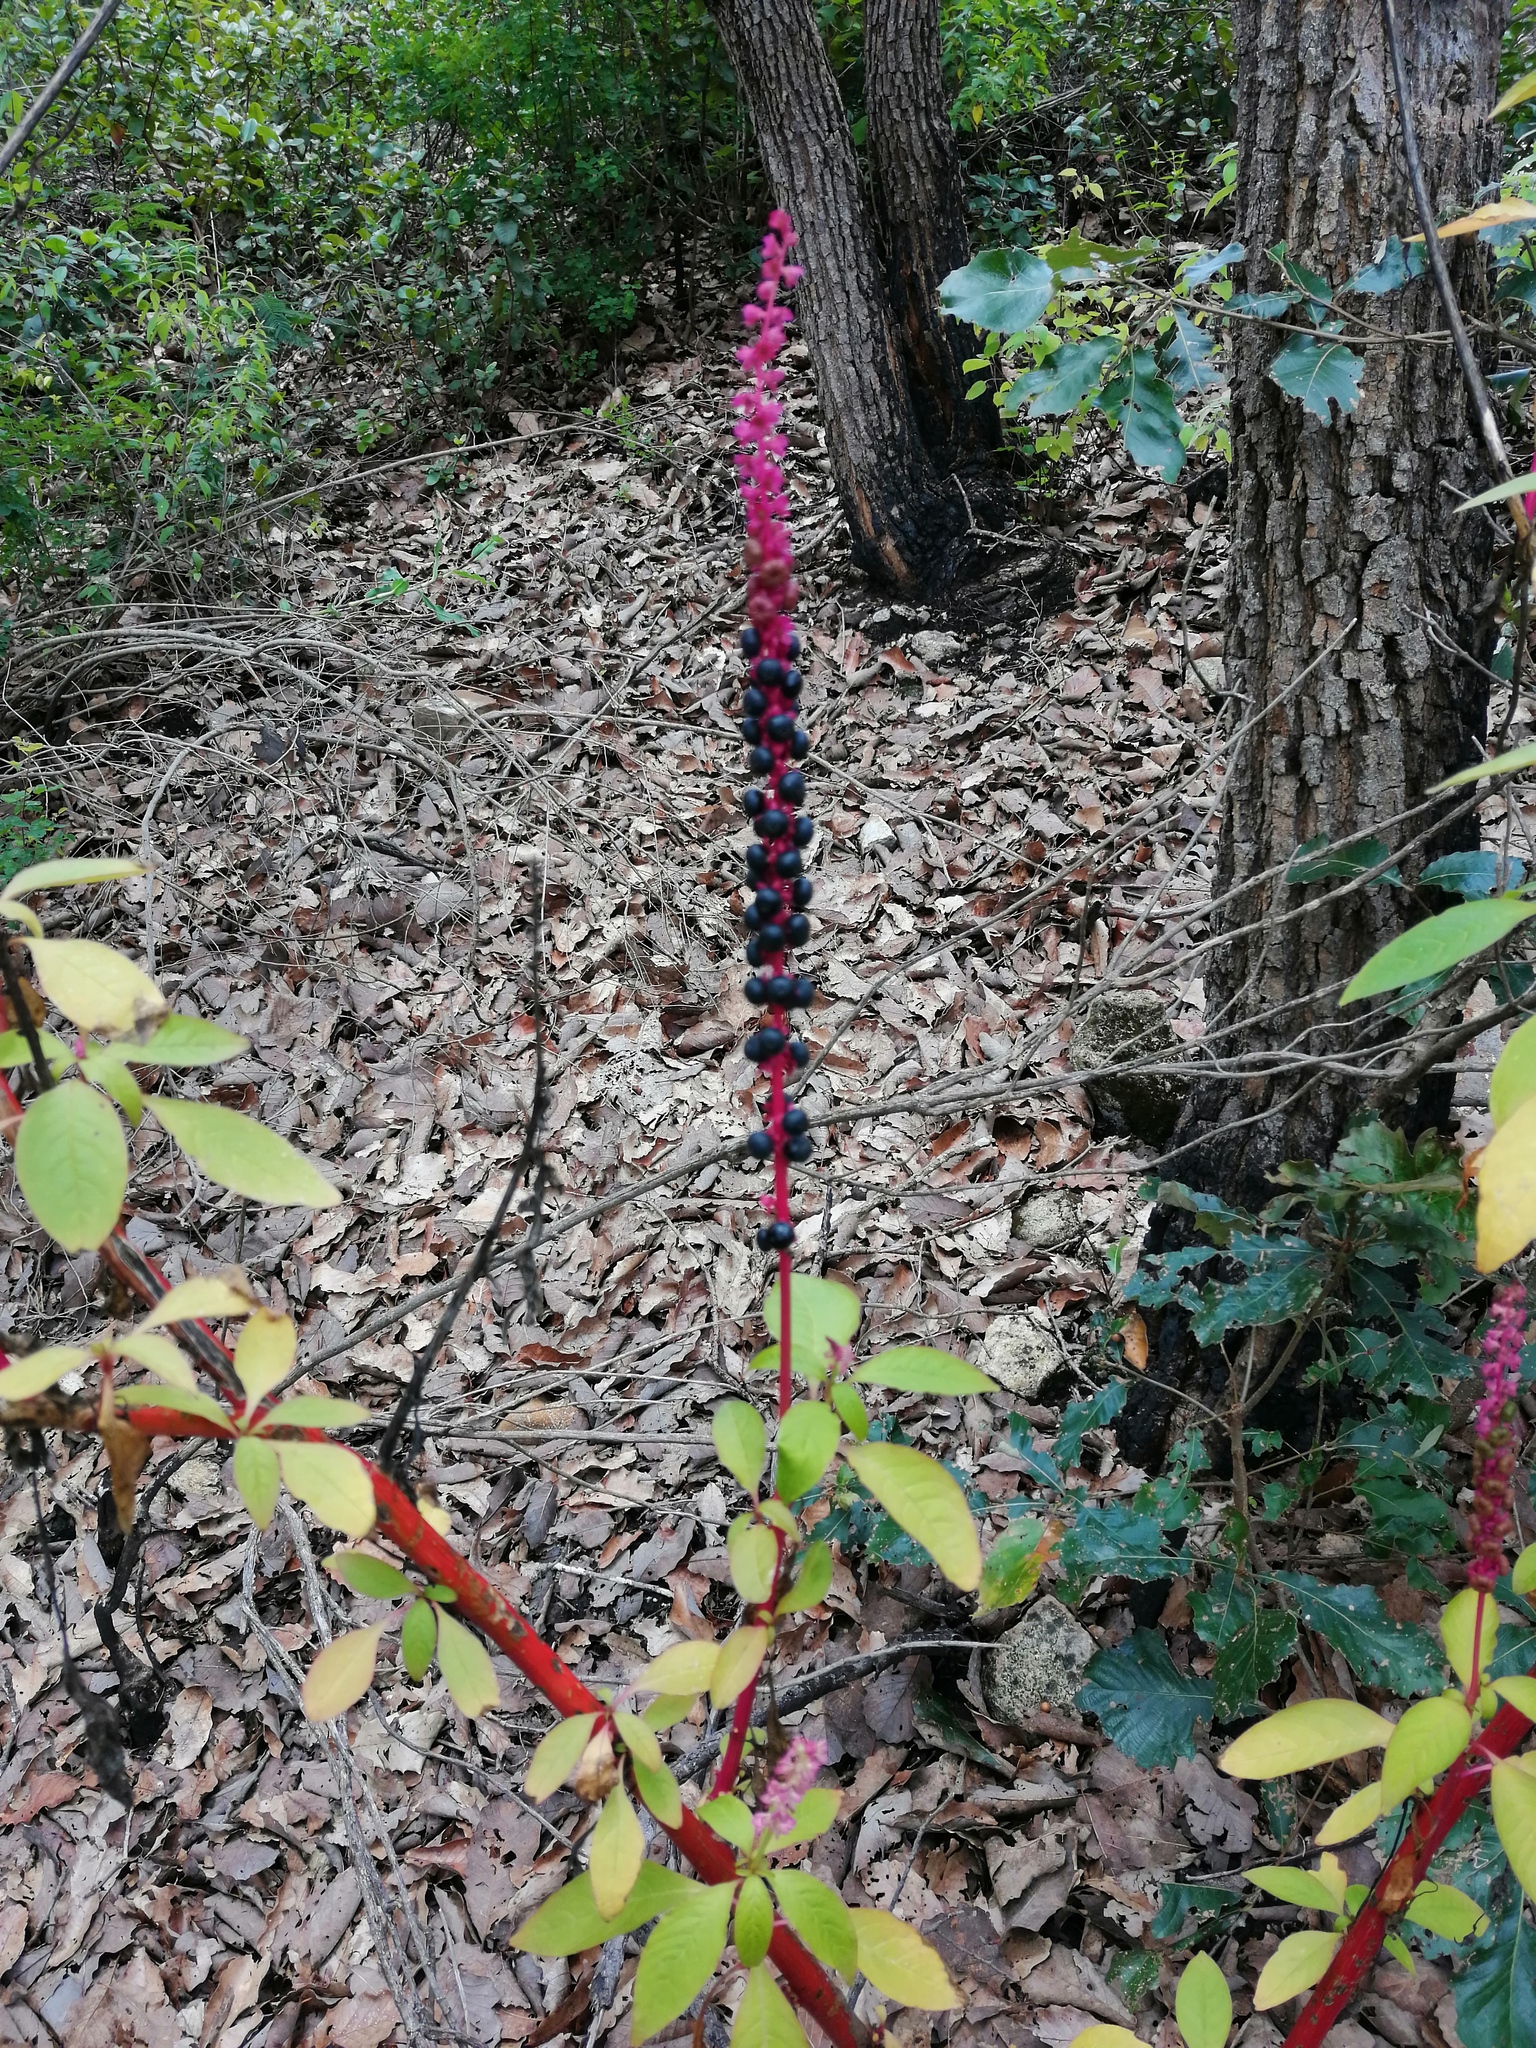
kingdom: Plantae
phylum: Tracheophyta
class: Magnoliopsida
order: Caryophyllales
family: Phytolaccaceae
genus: Phytolacca
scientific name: Phytolacca icosandra
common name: Button pokeweed
